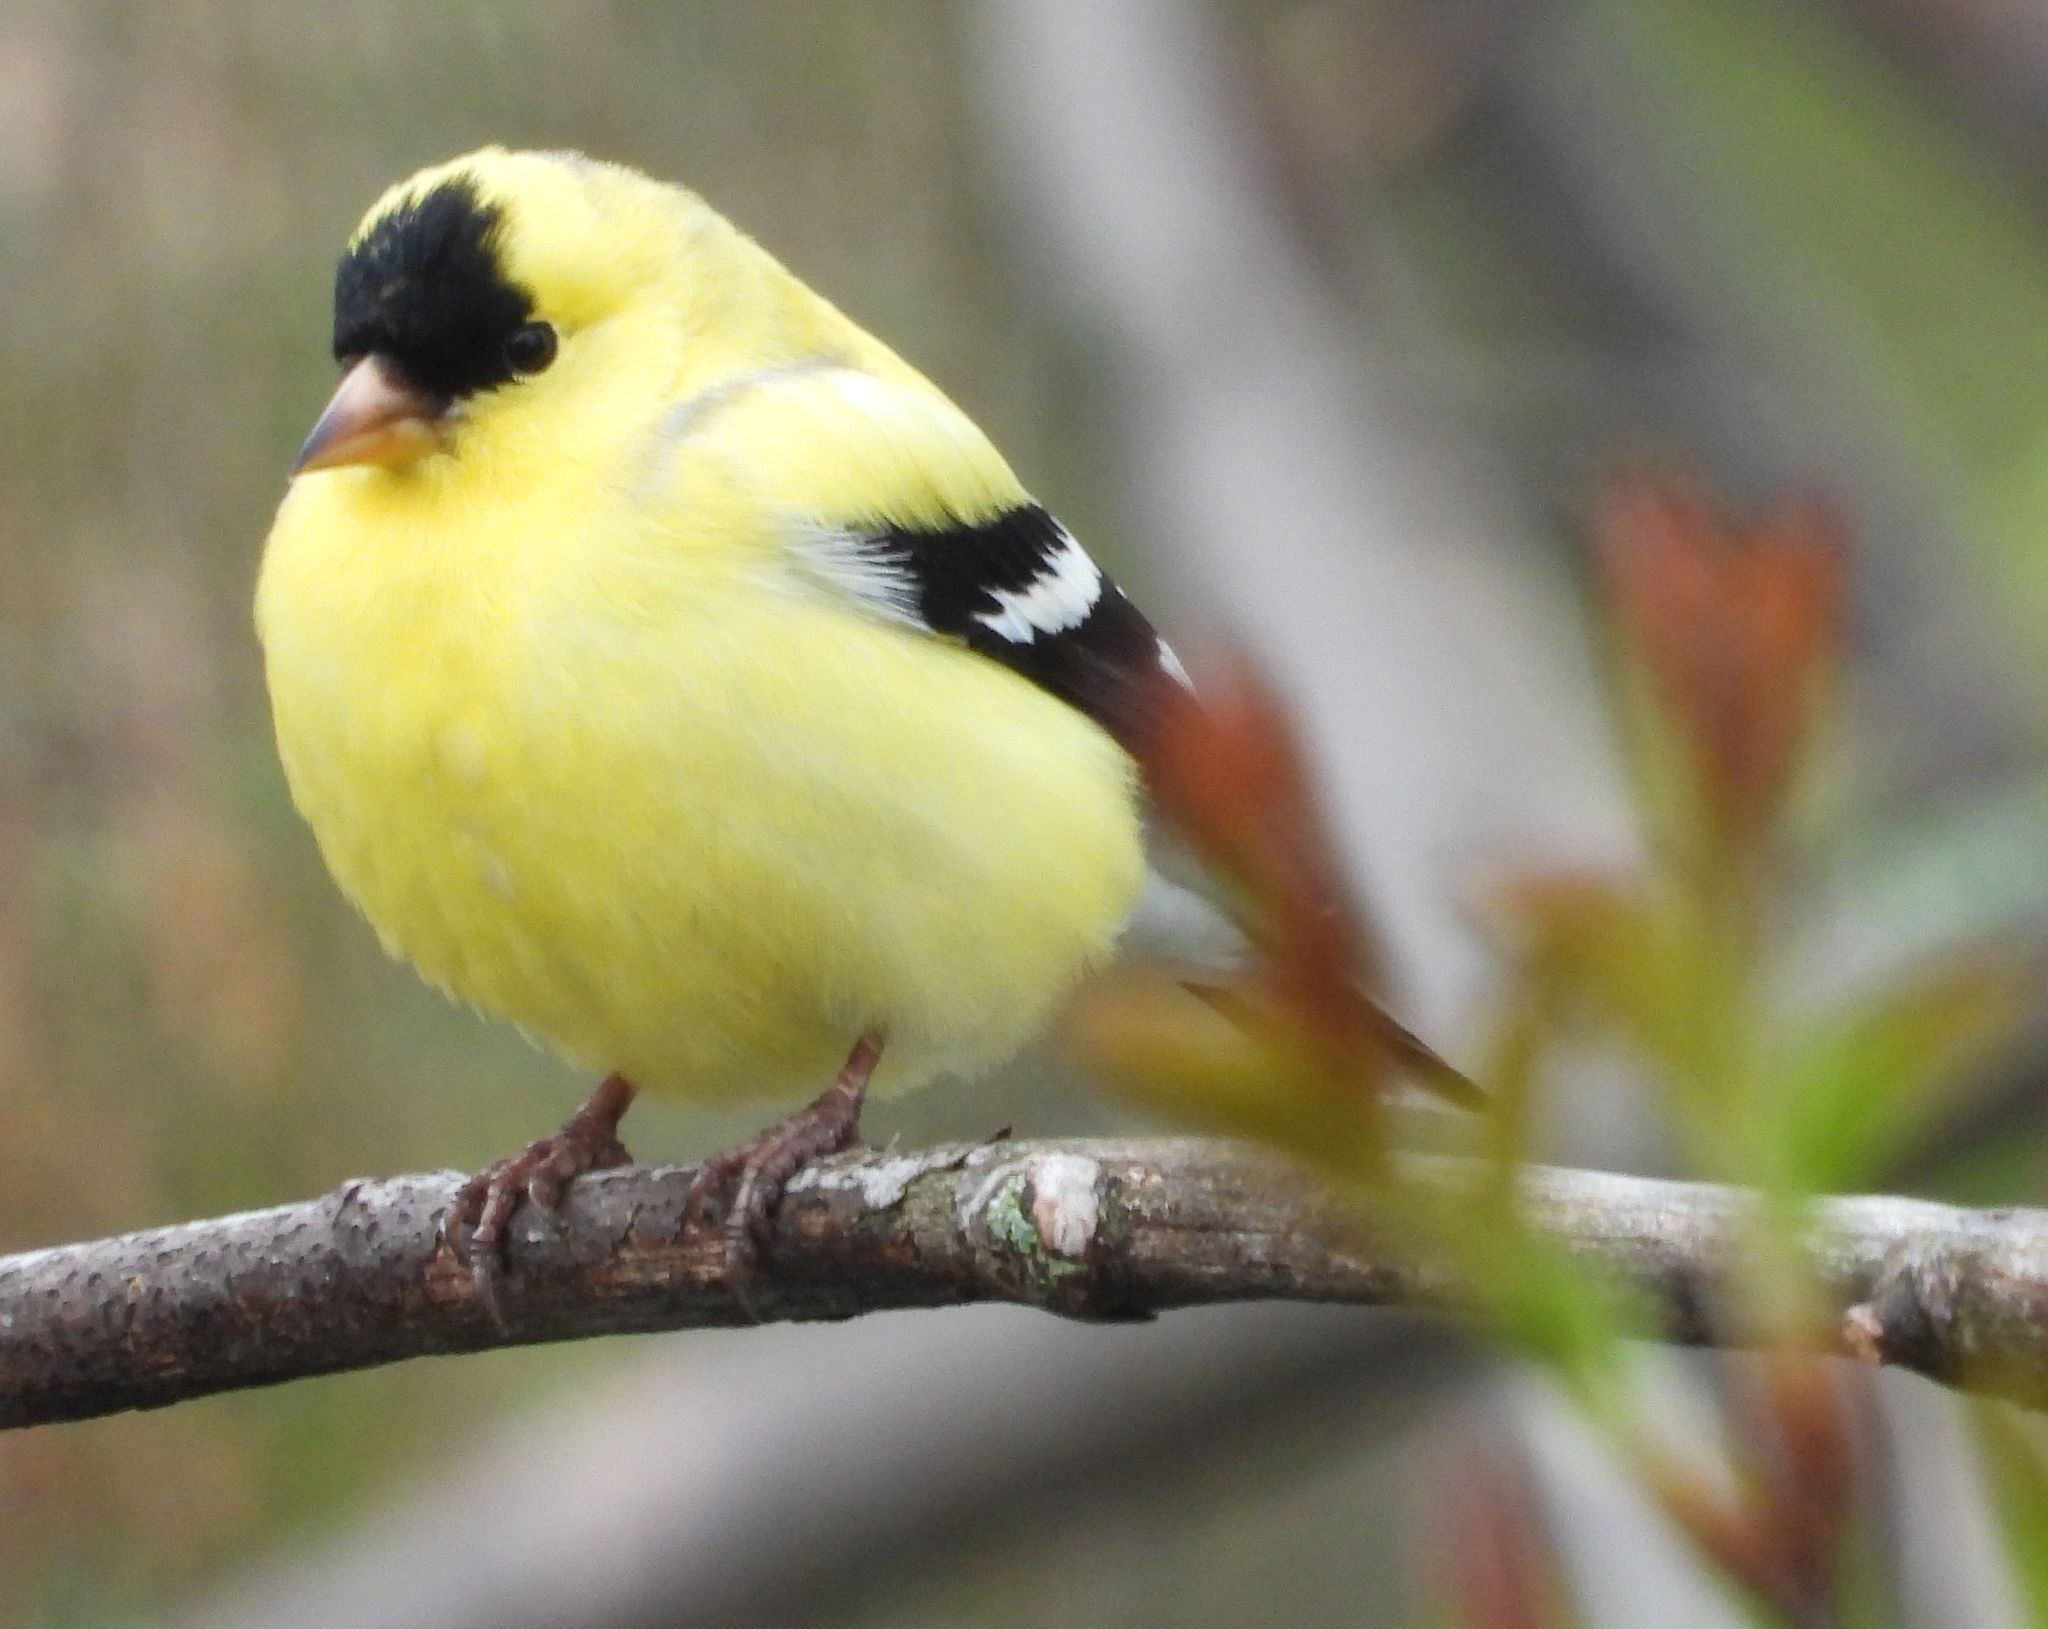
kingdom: Animalia
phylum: Chordata
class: Aves
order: Passeriformes
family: Fringillidae
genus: Spinus
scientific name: Spinus tristis
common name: American goldfinch
